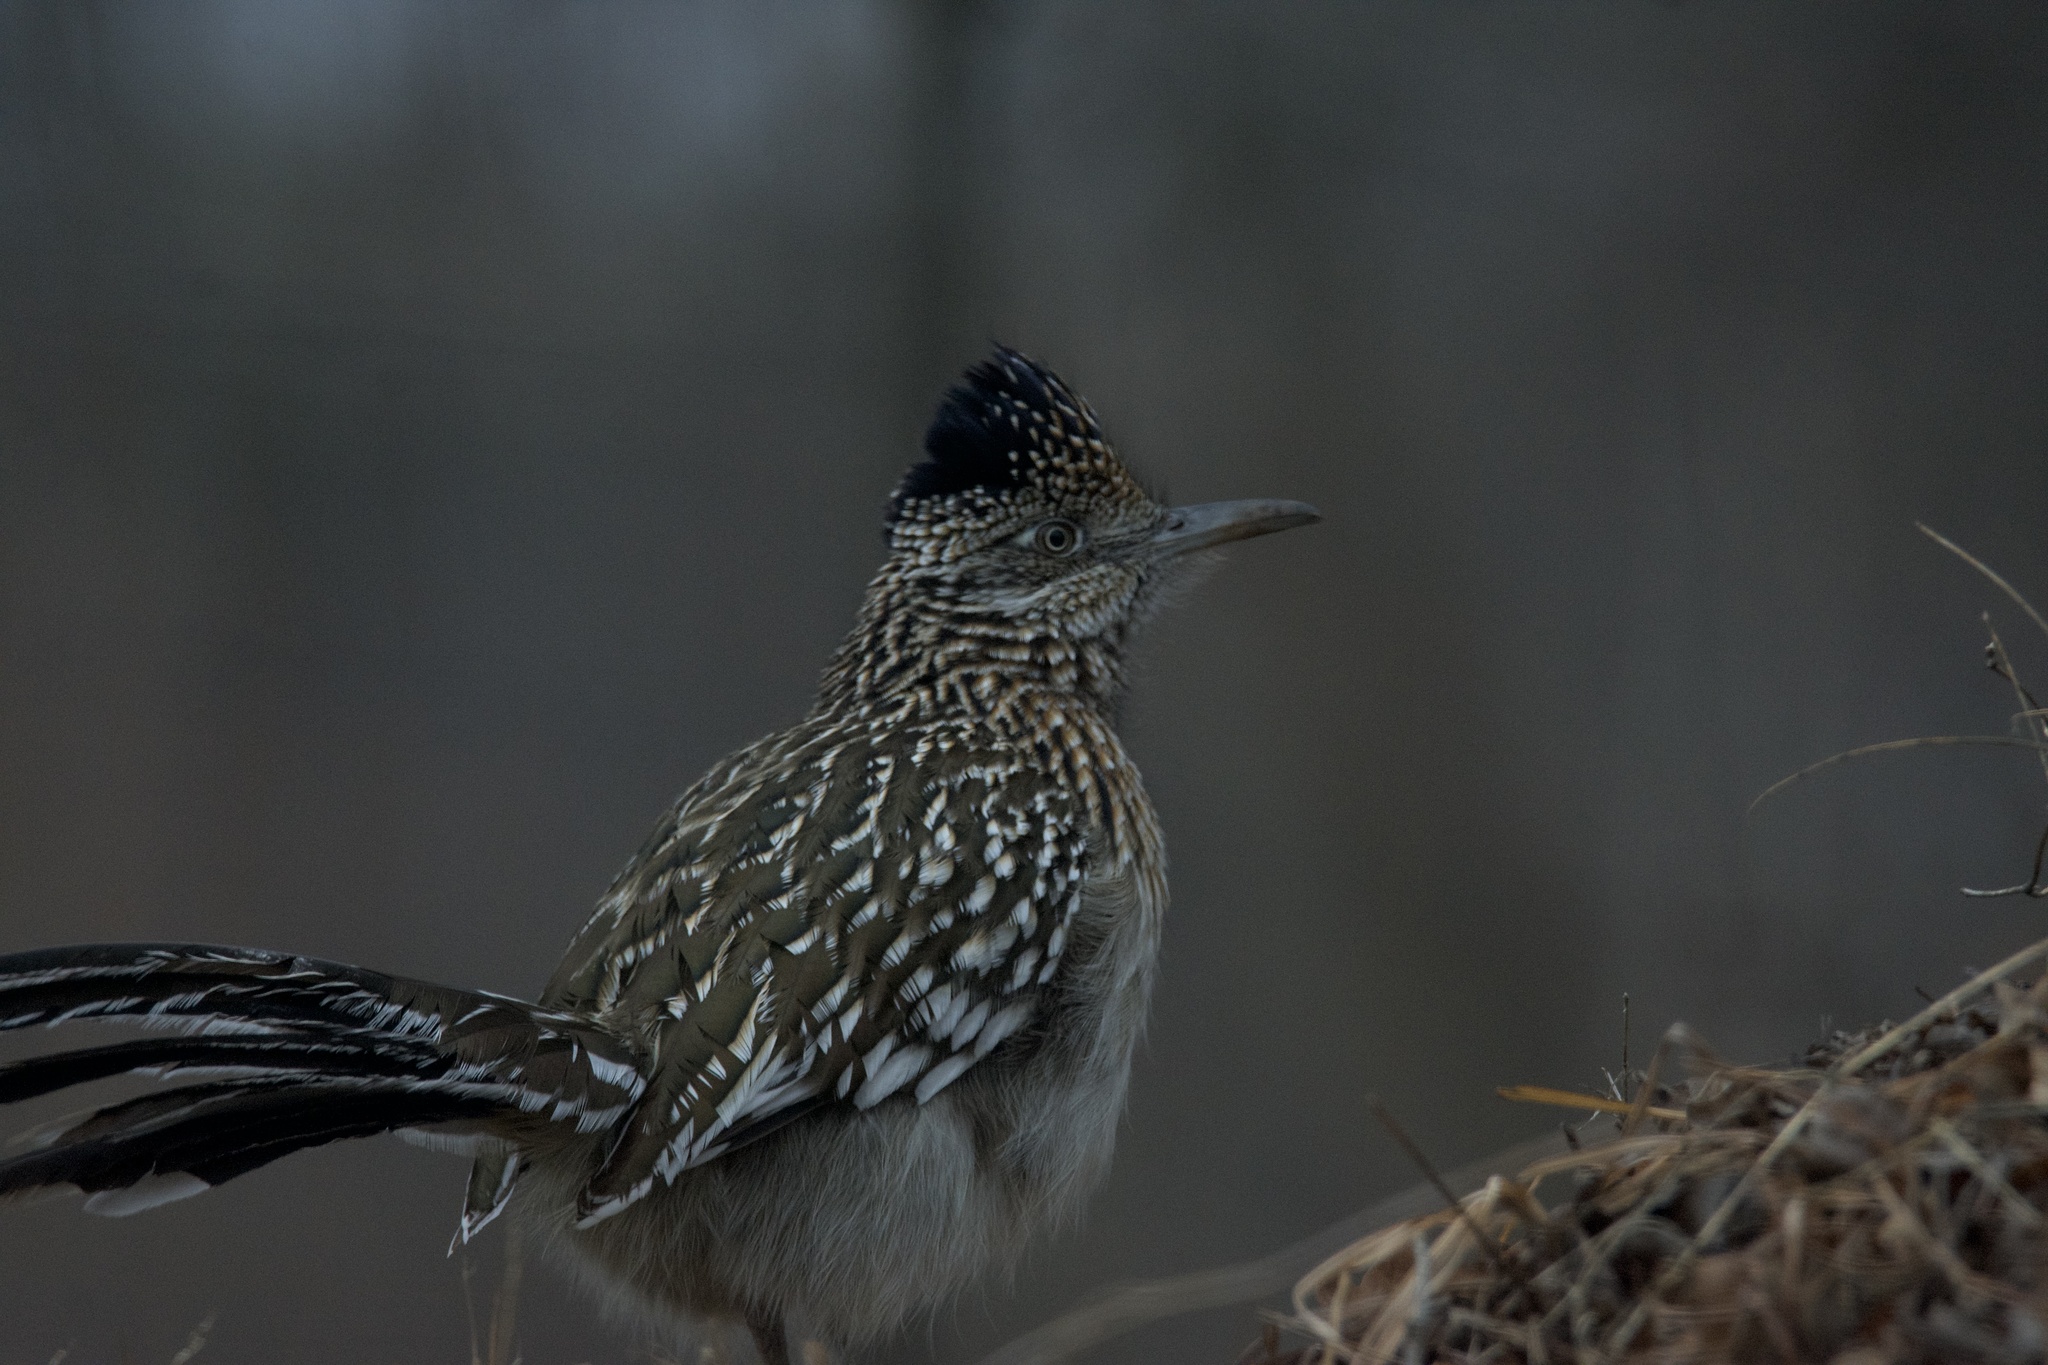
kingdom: Animalia
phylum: Chordata
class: Aves
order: Cuculiformes
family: Cuculidae
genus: Geococcyx
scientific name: Geococcyx californianus
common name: Greater roadrunner
